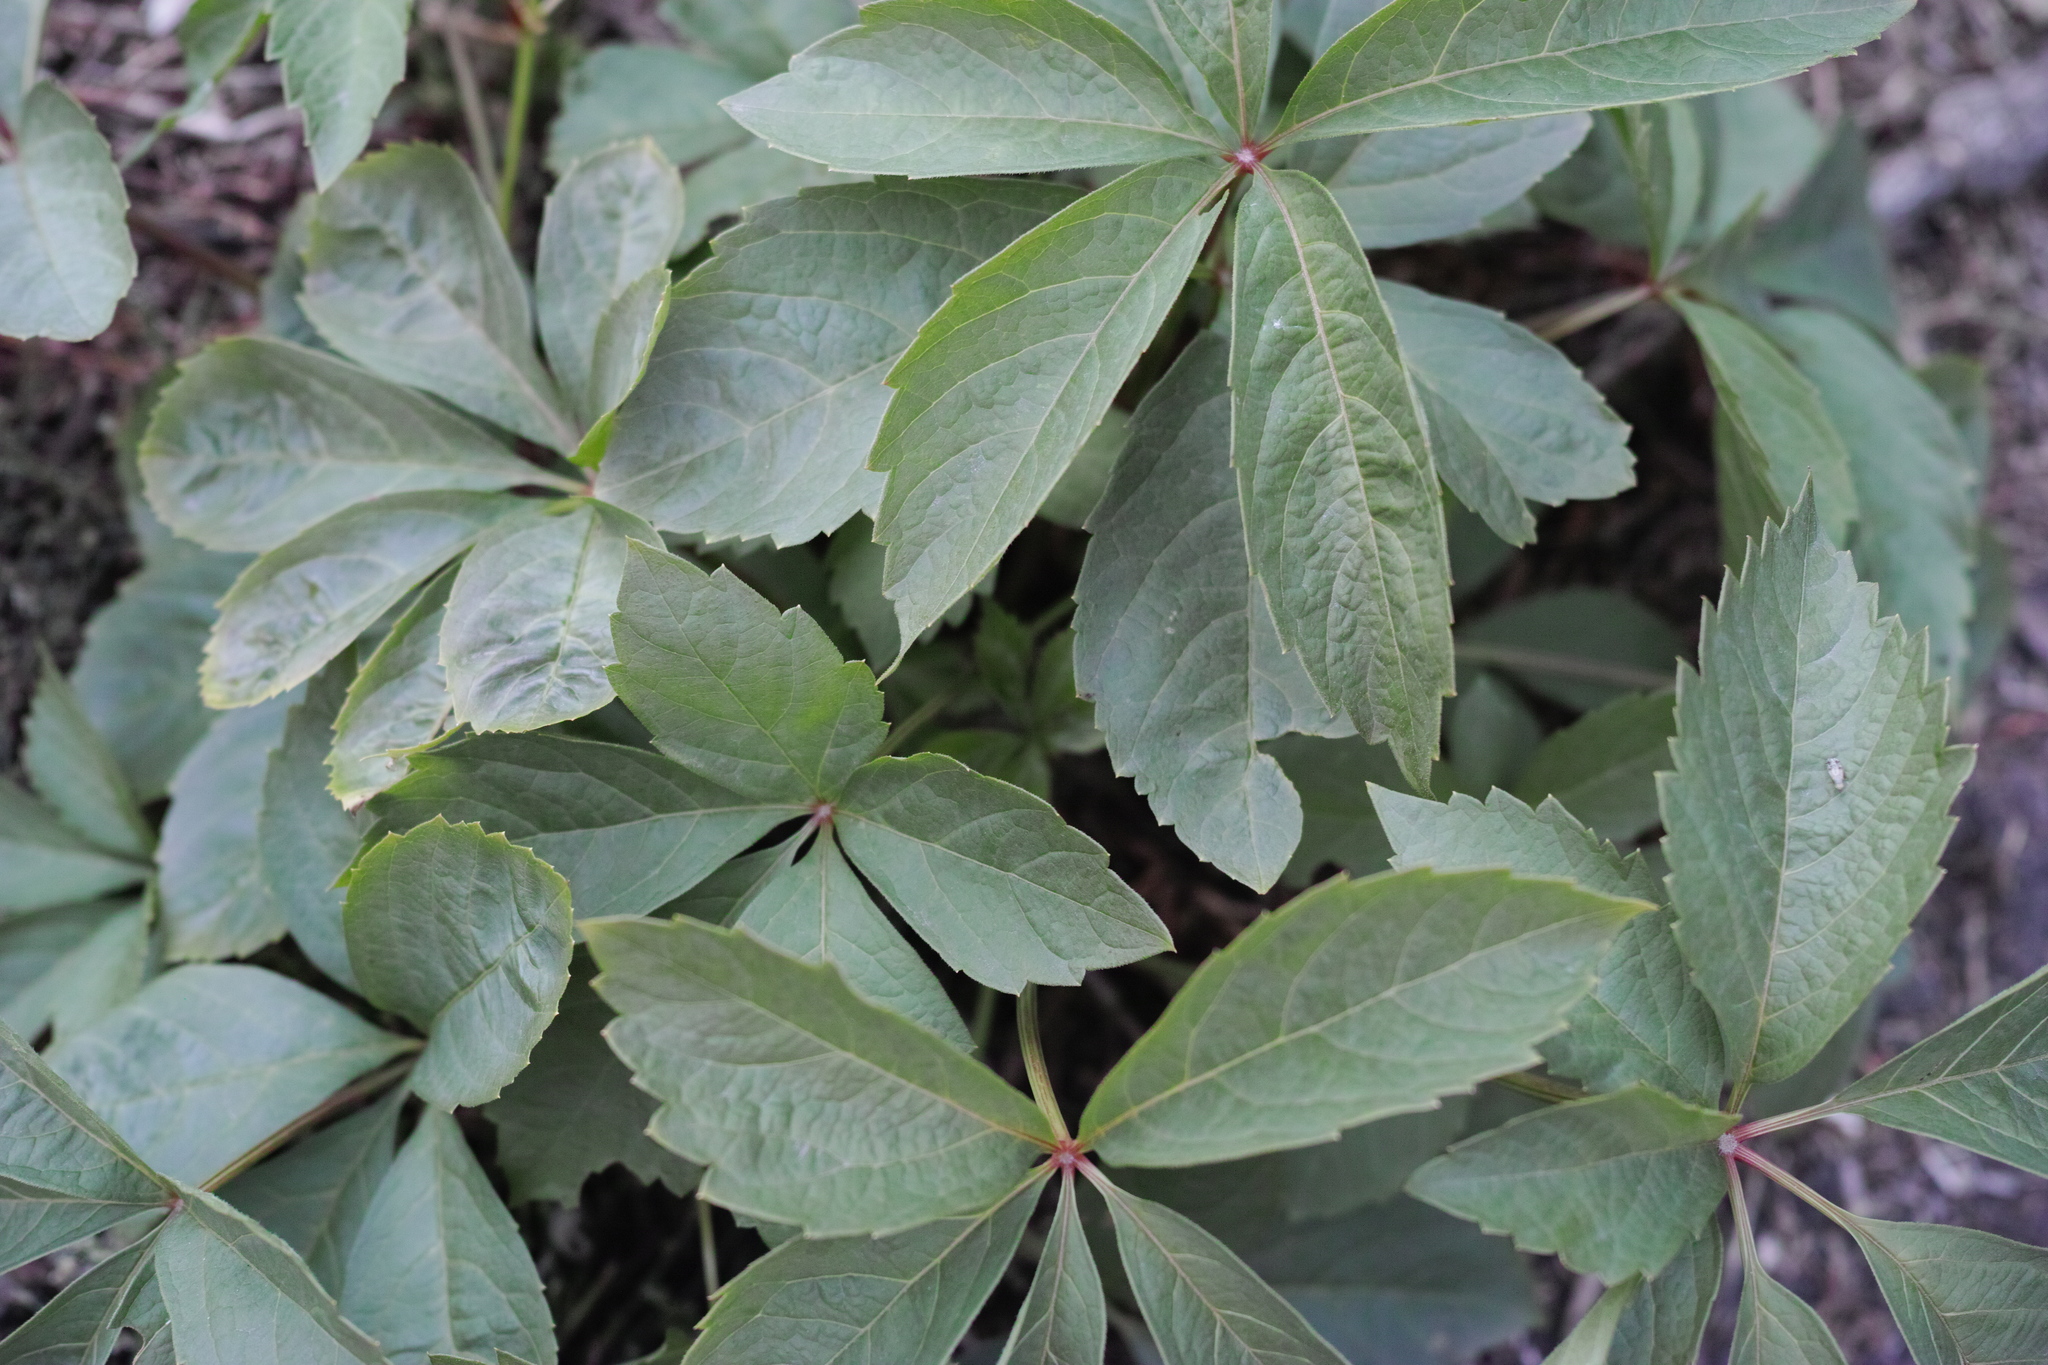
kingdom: Plantae
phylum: Tracheophyta
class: Magnoliopsida
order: Vitales
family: Vitaceae
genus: Parthenocissus
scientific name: Parthenocissus inserta
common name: False virginia-creeper
